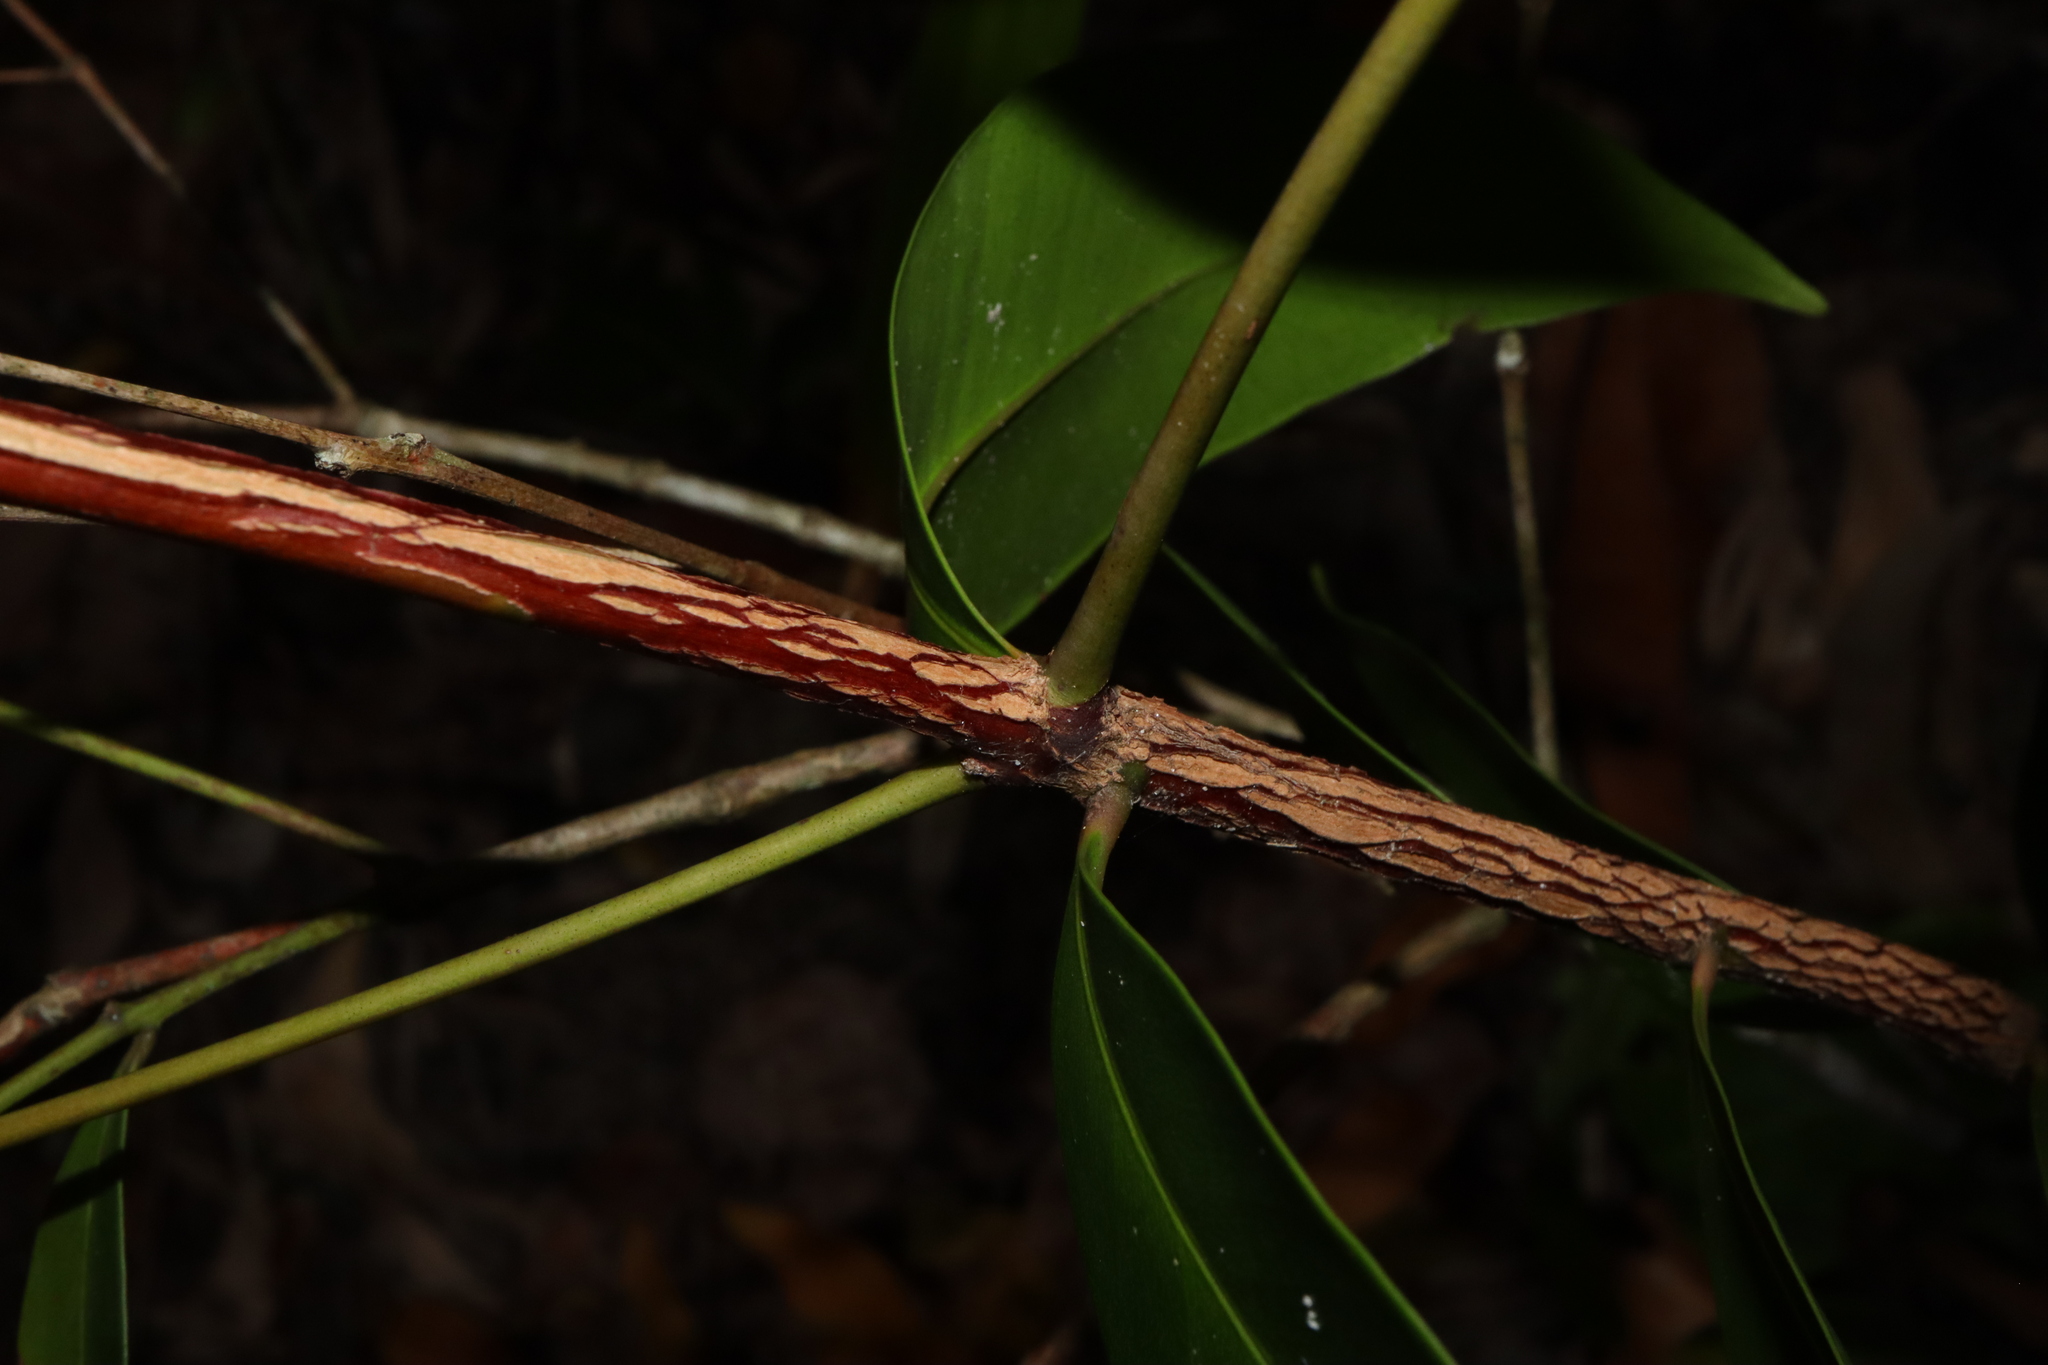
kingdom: Plantae
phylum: Tracheophyta
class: Magnoliopsida
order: Myrtales
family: Myrtaceae
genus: Syzygium
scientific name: Syzygium hemilamprum
